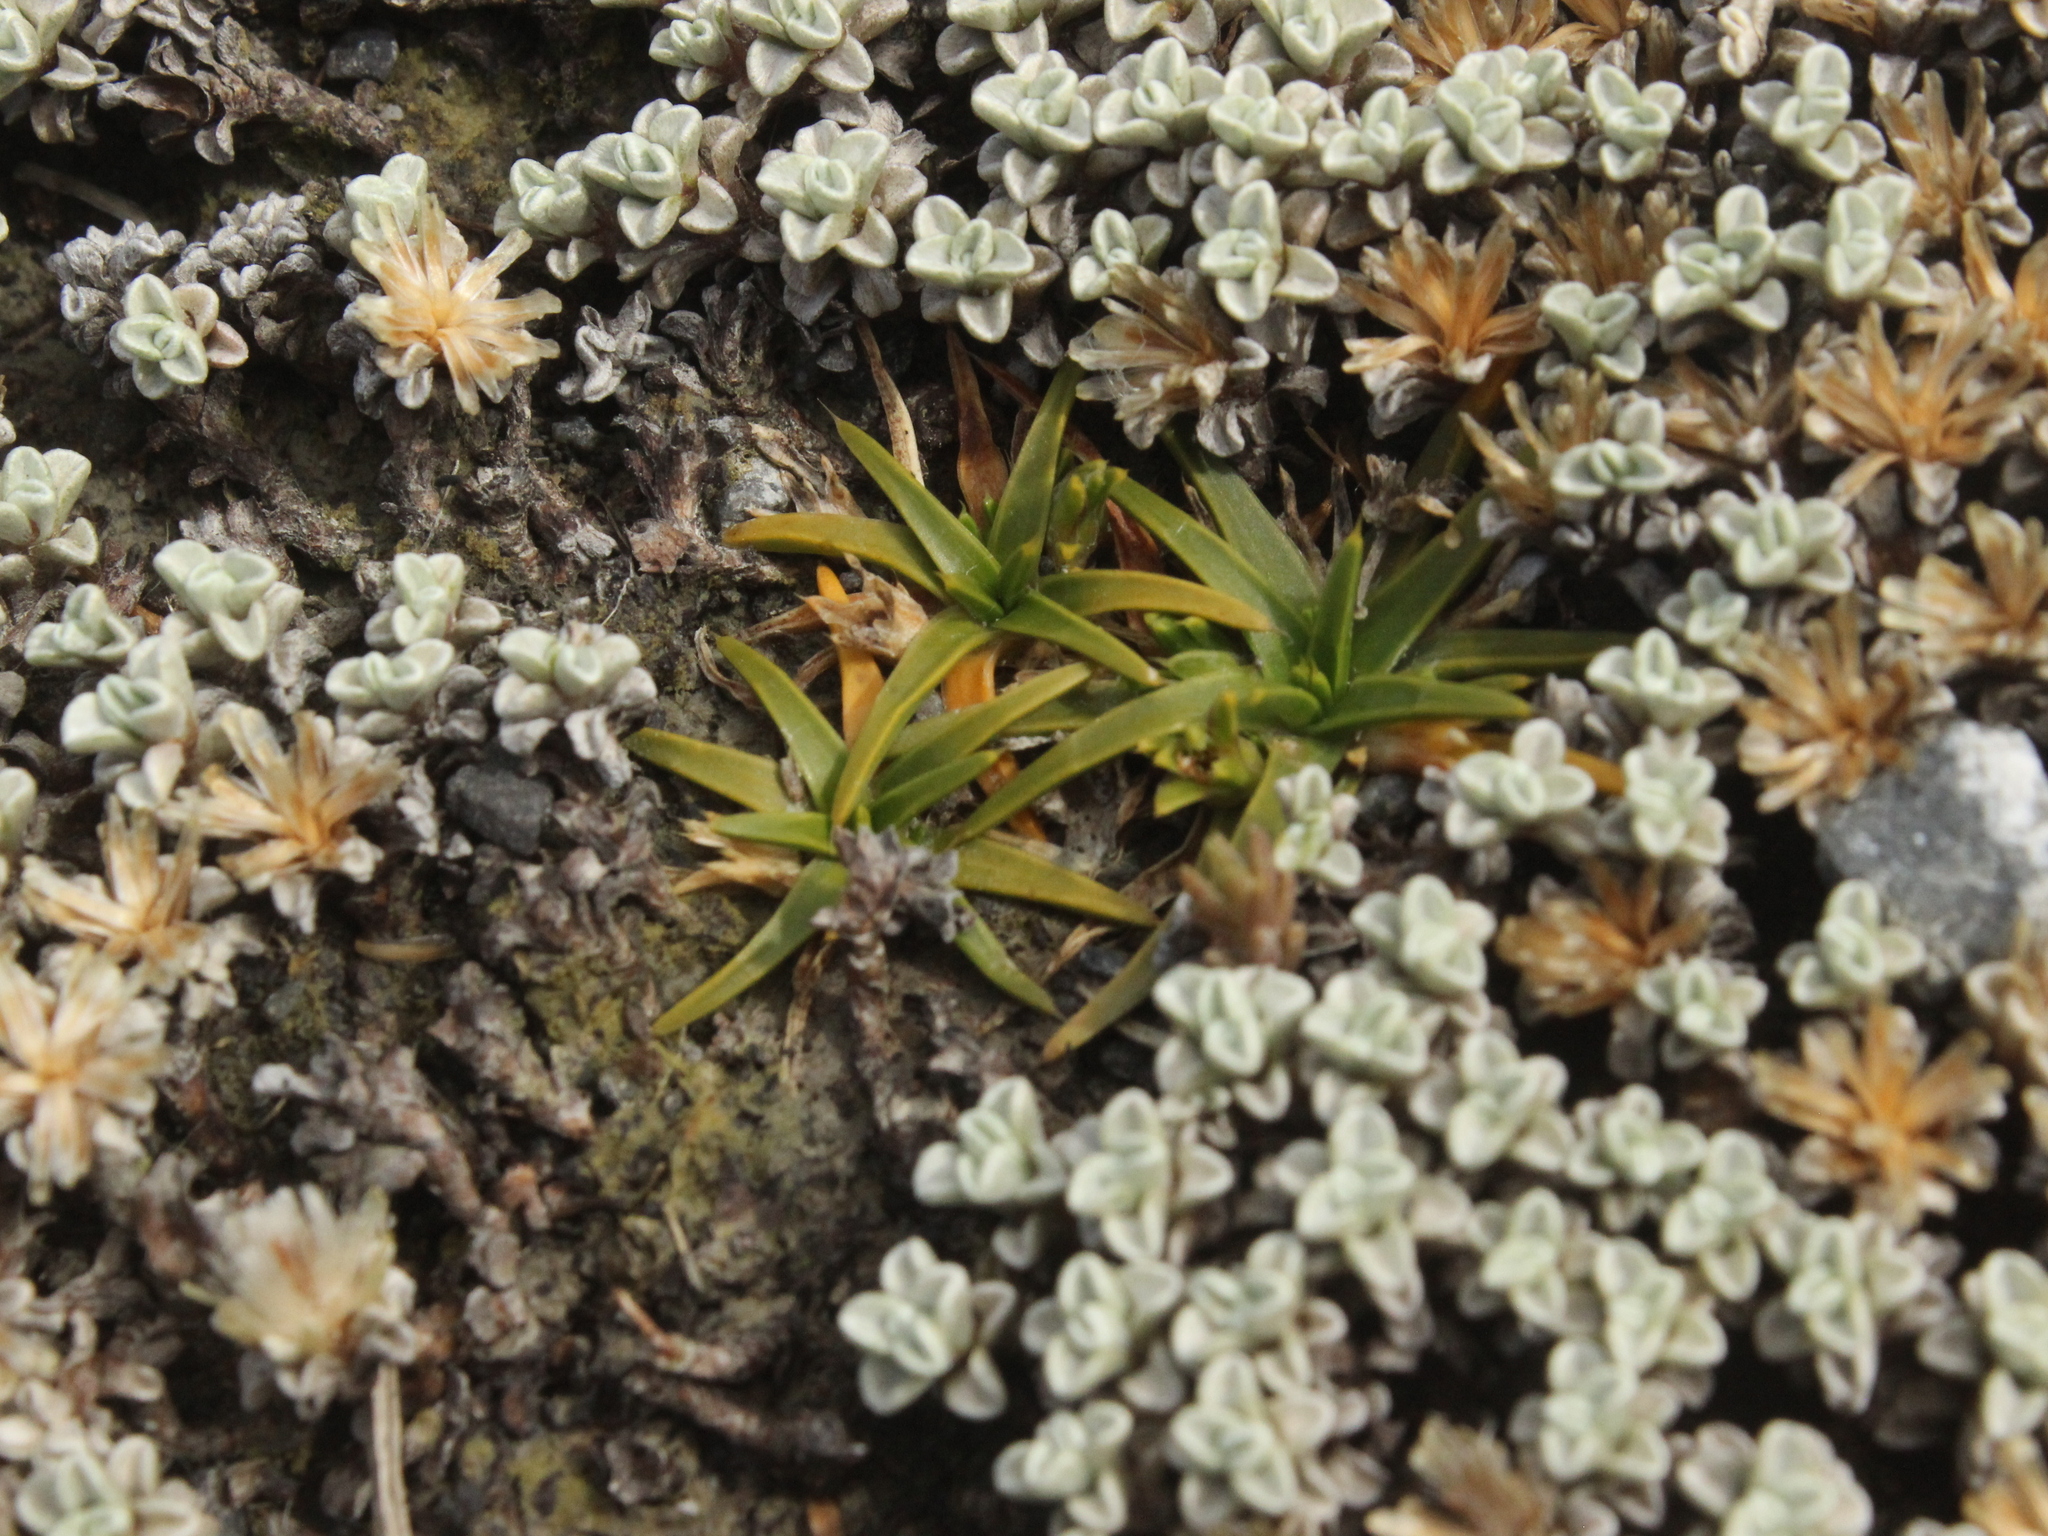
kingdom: Plantae
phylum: Tracheophyta
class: Magnoliopsida
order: Caryophyllales
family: Caryophyllaceae
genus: Colobanthus
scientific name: Colobanthus muelleri
